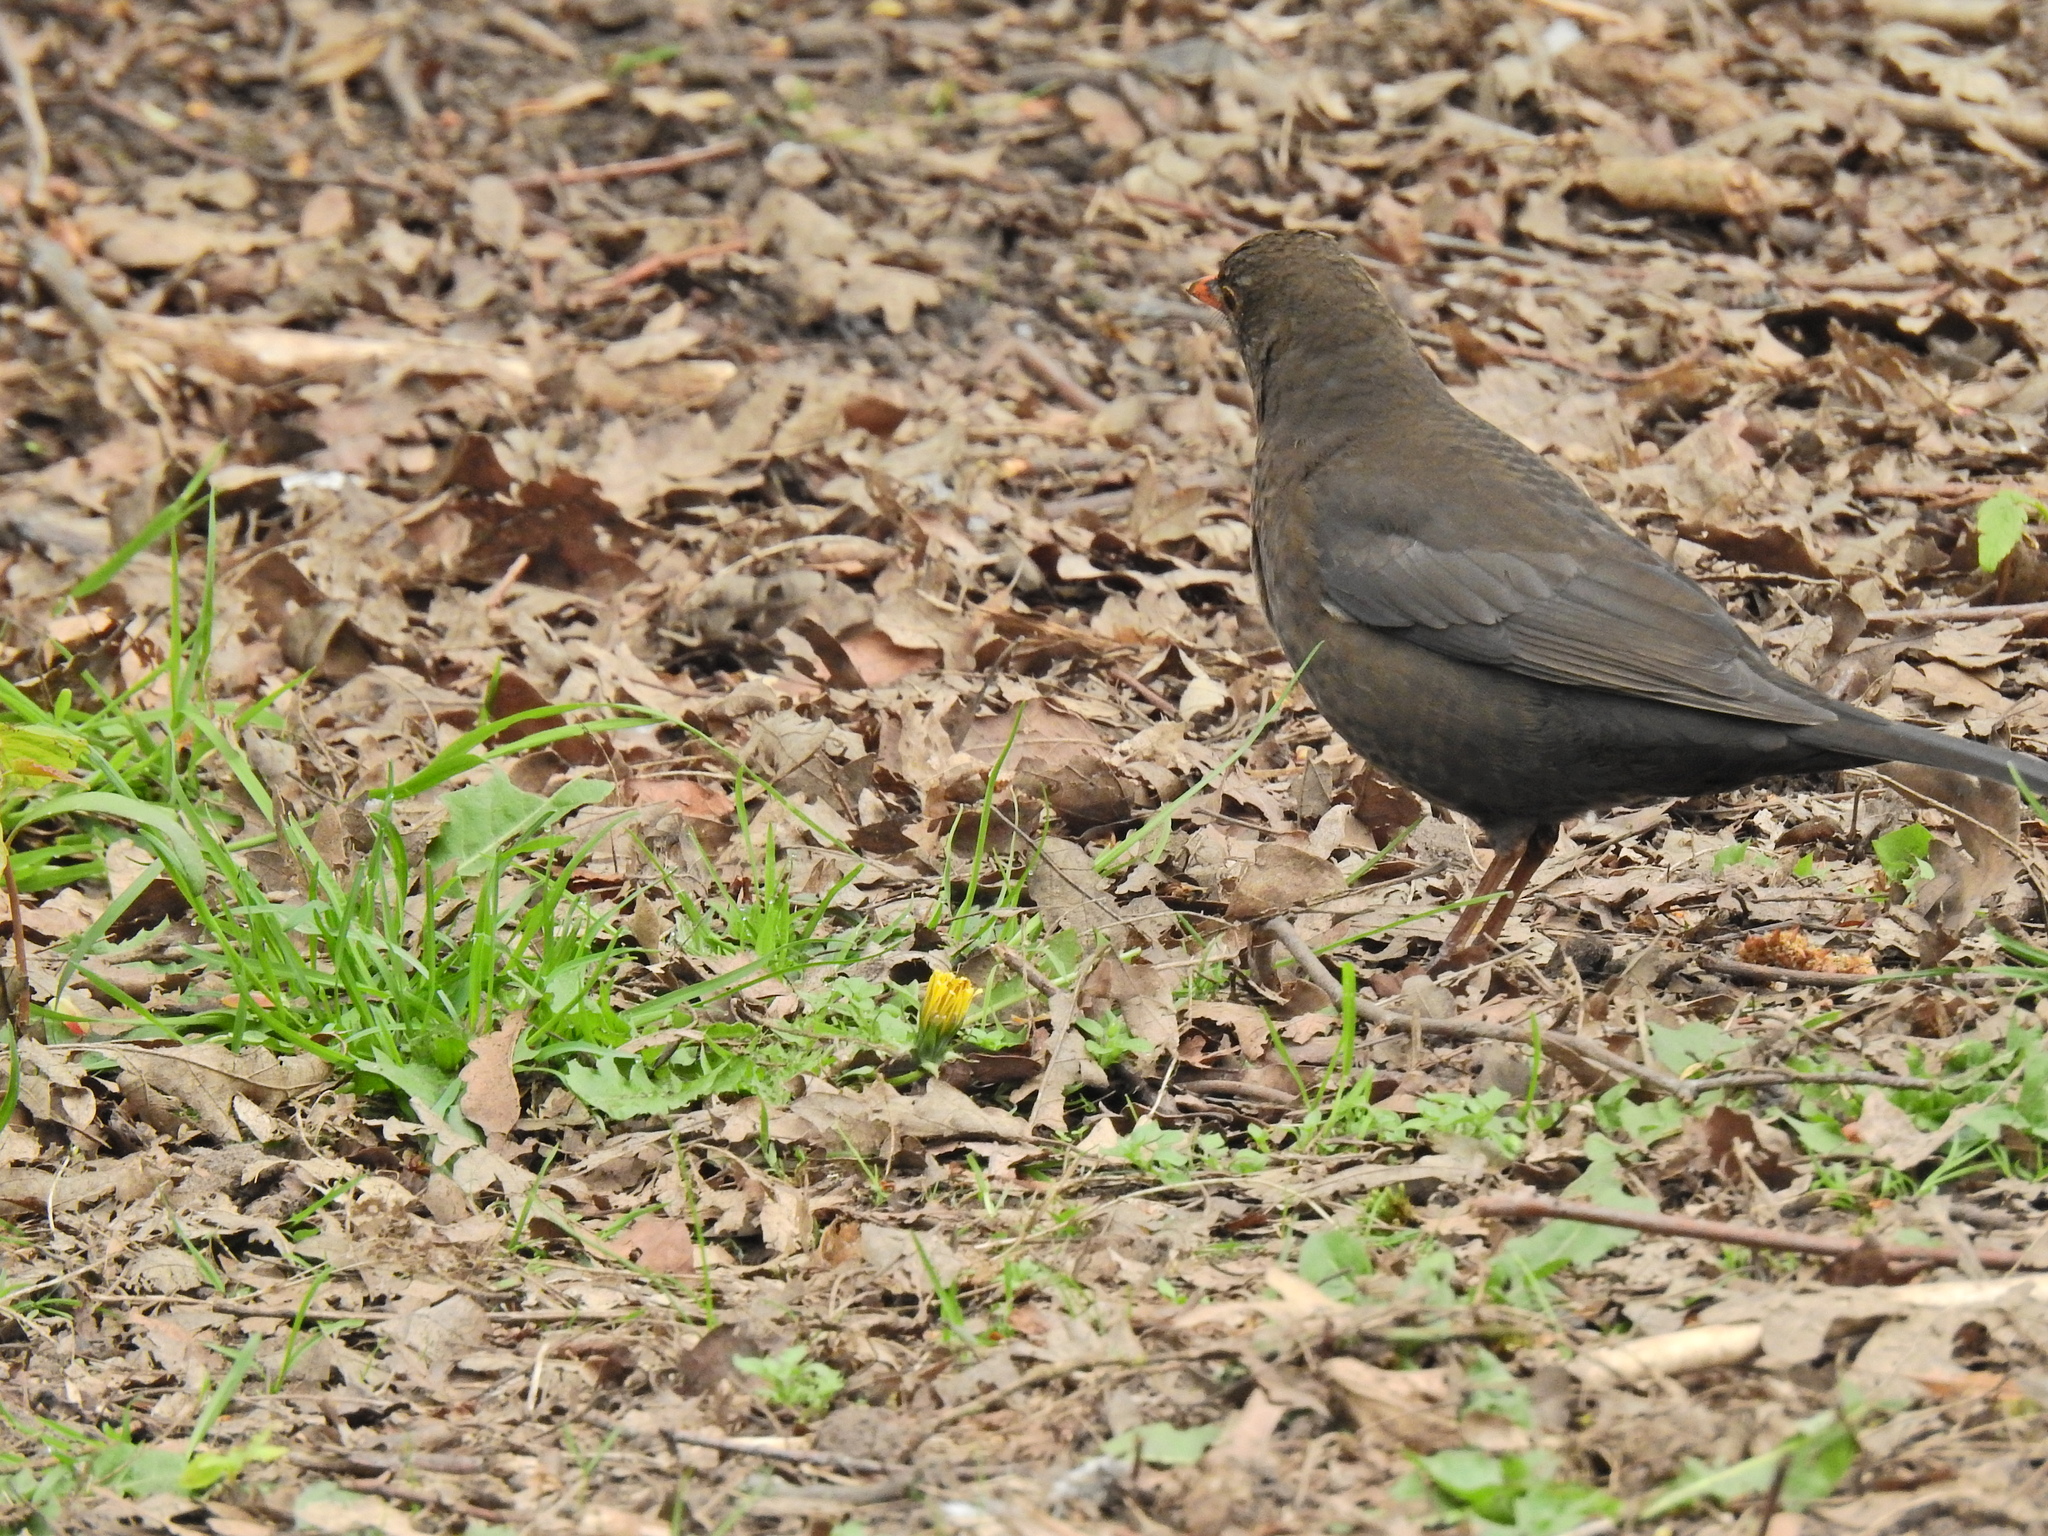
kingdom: Animalia
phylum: Chordata
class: Aves
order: Passeriformes
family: Turdidae
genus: Turdus
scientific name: Turdus merula
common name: Common blackbird
